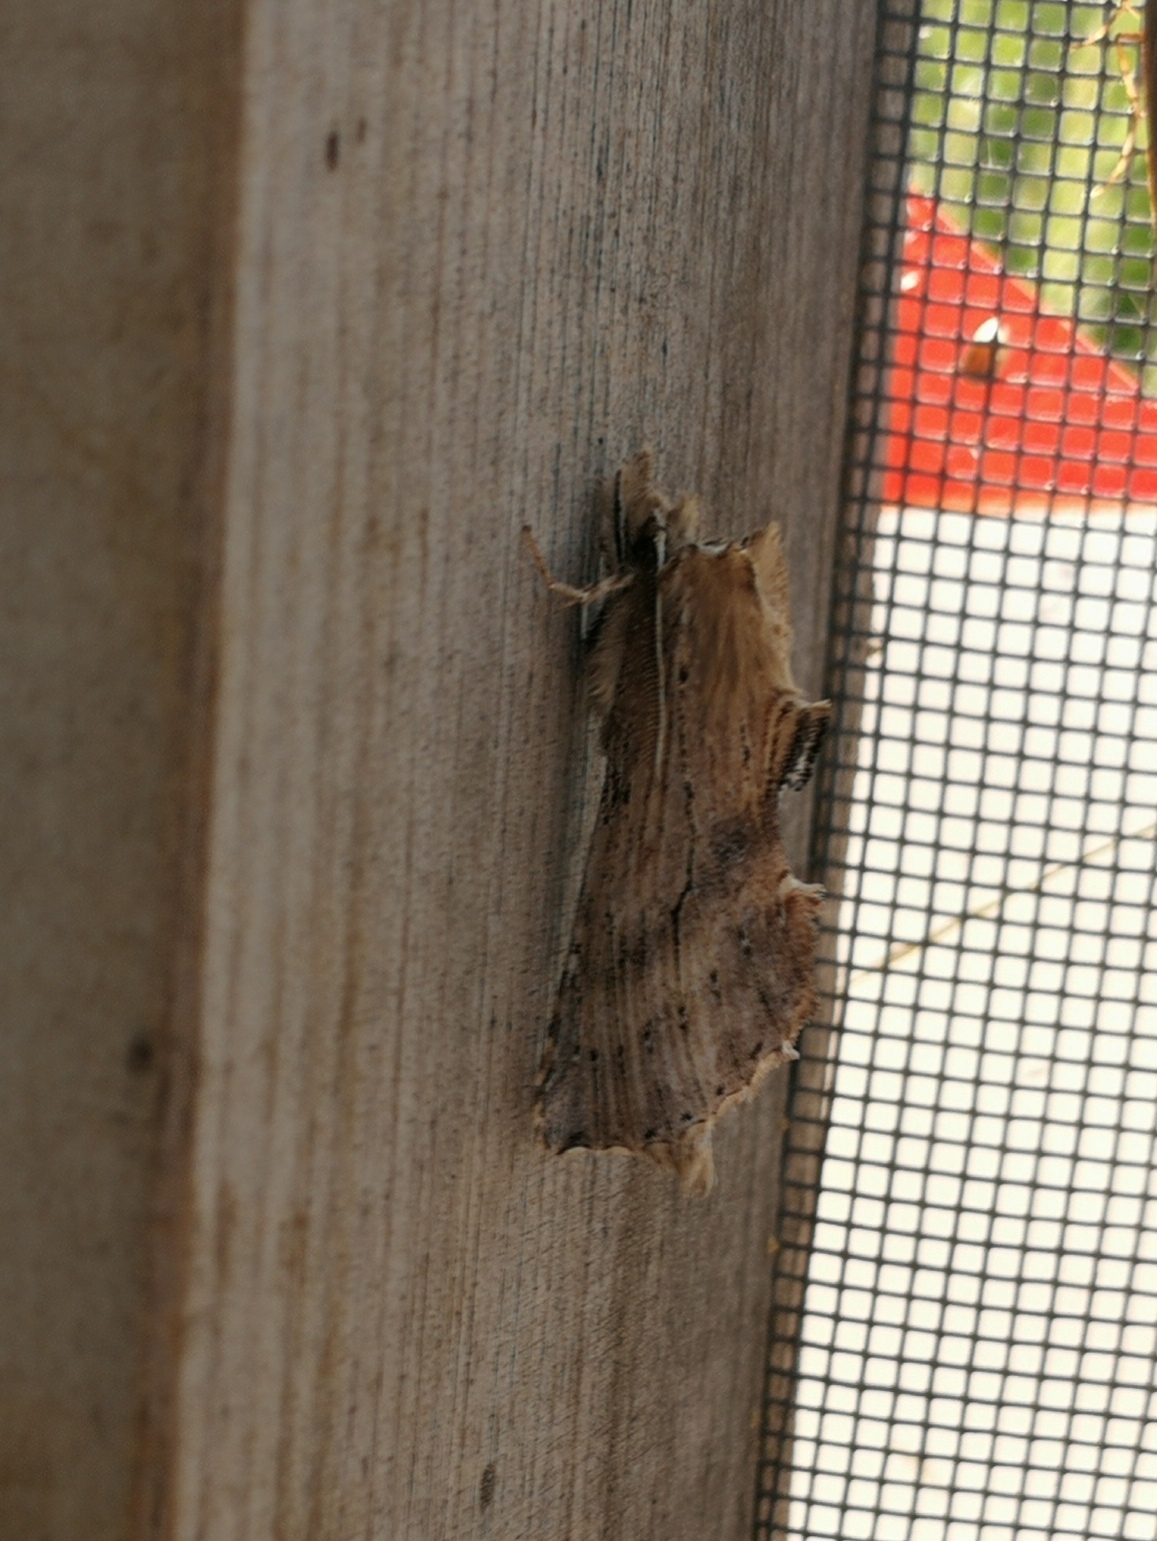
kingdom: Animalia
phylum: Arthropoda
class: Insecta
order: Lepidoptera
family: Notodontidae
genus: Pterostoma
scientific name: Pterostoma palpina
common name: Pale prominent
